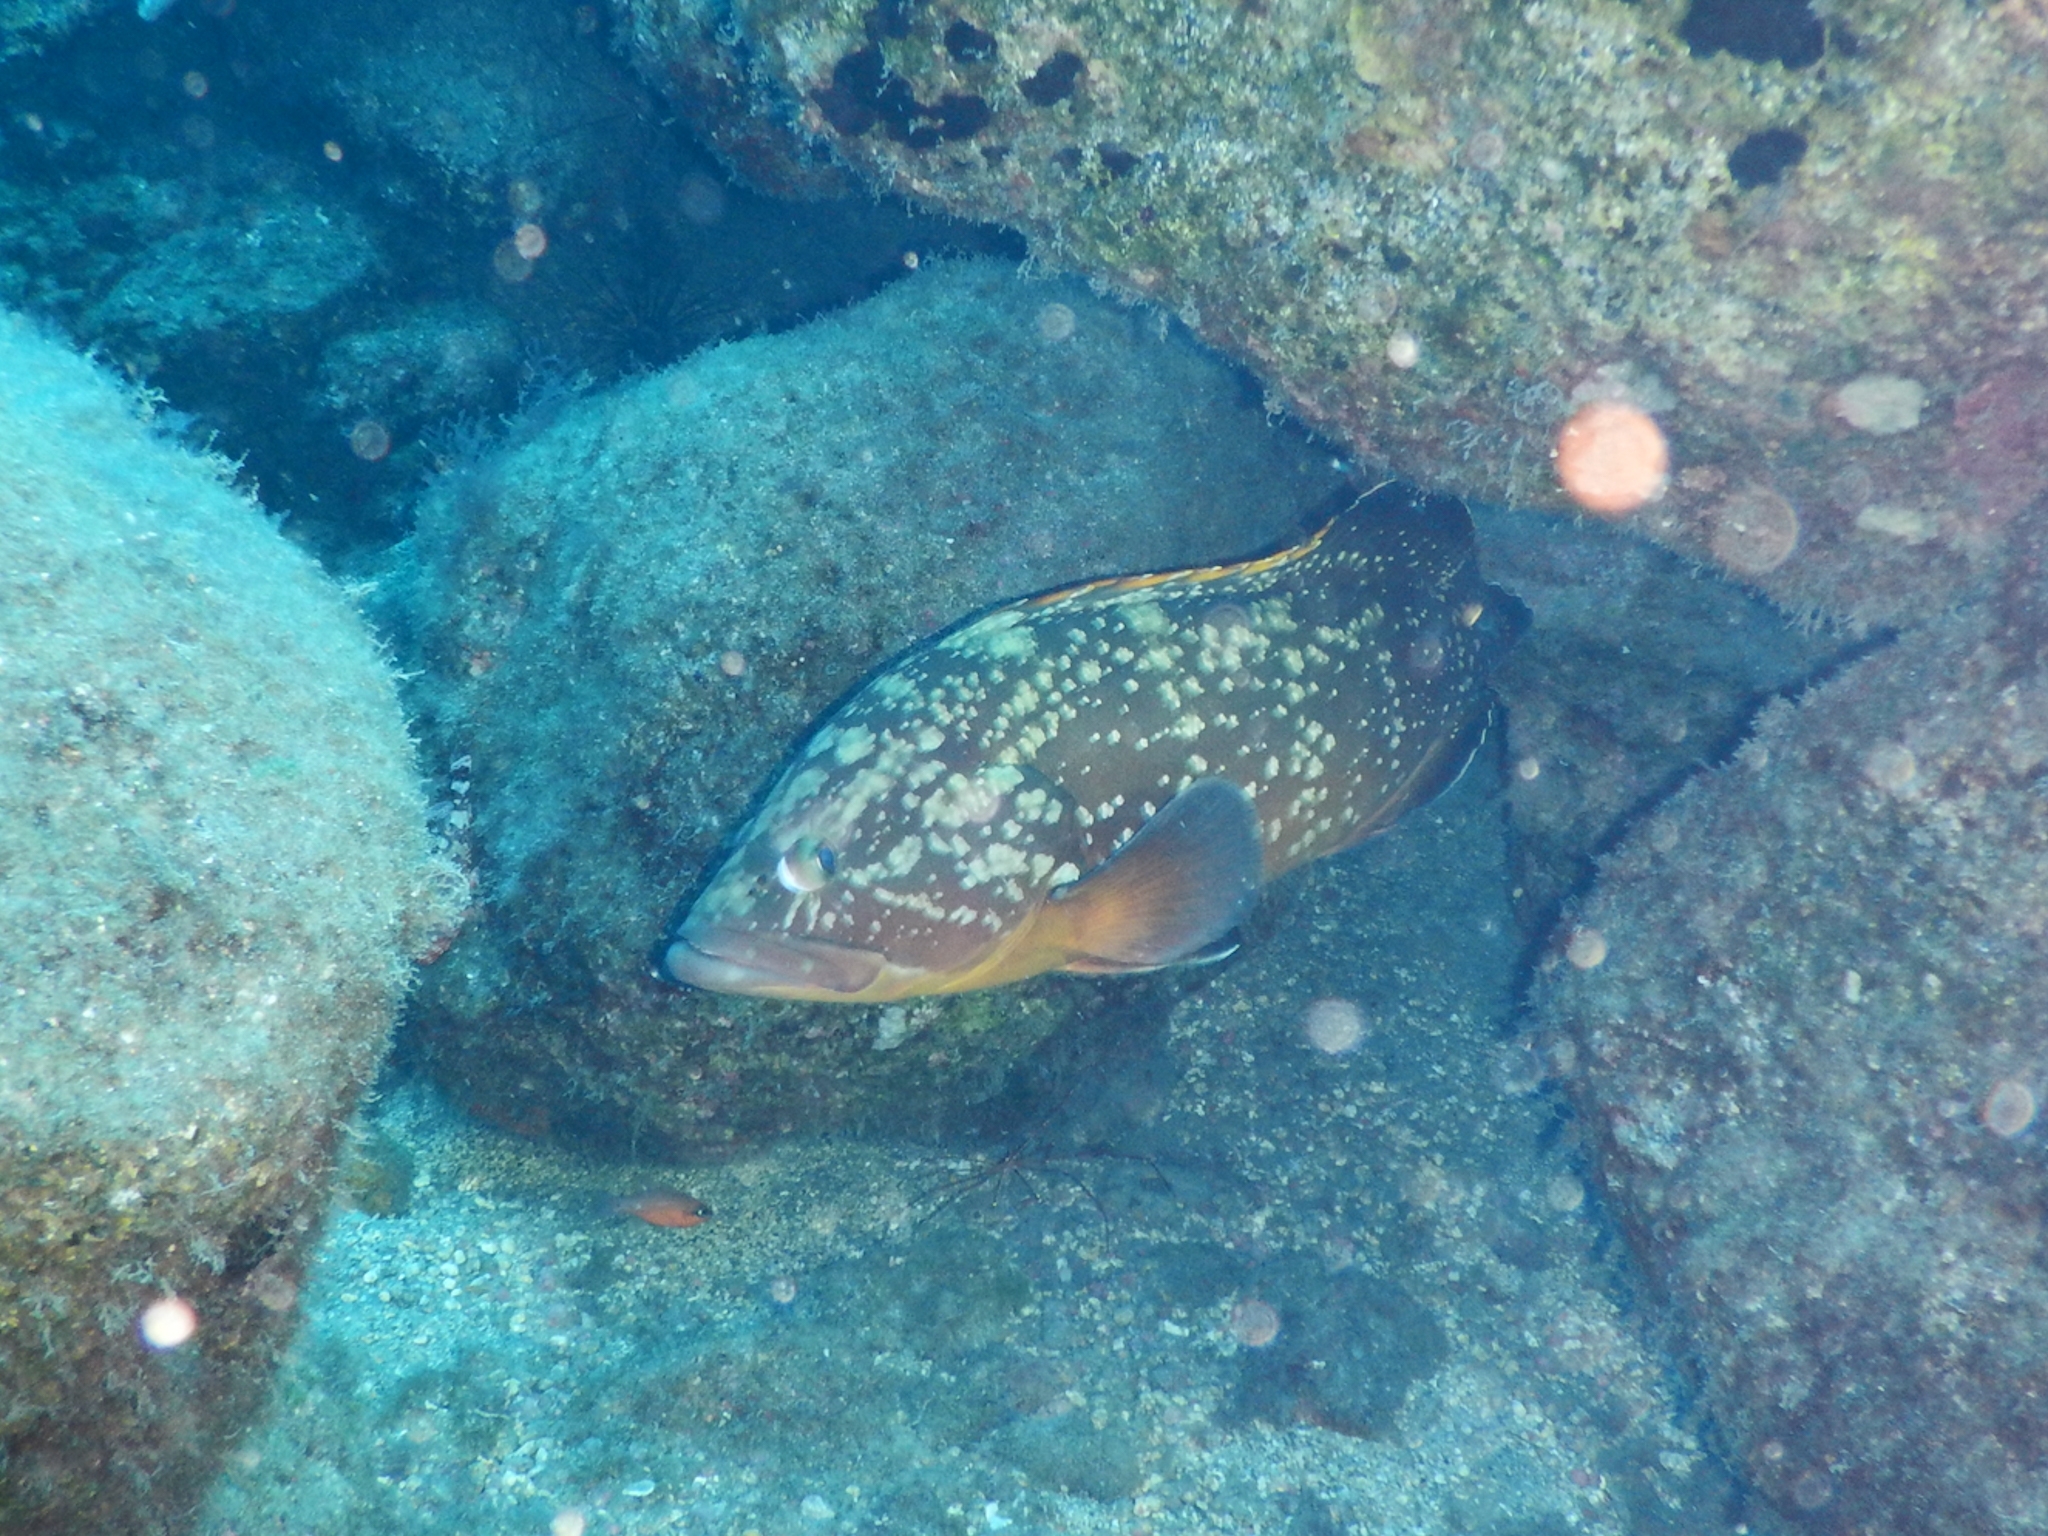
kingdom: Animalia
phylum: Chordata
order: Perciformes
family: Serranidae
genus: Epinephelus
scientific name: Epinephelus marginatus
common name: Dusky grouper
